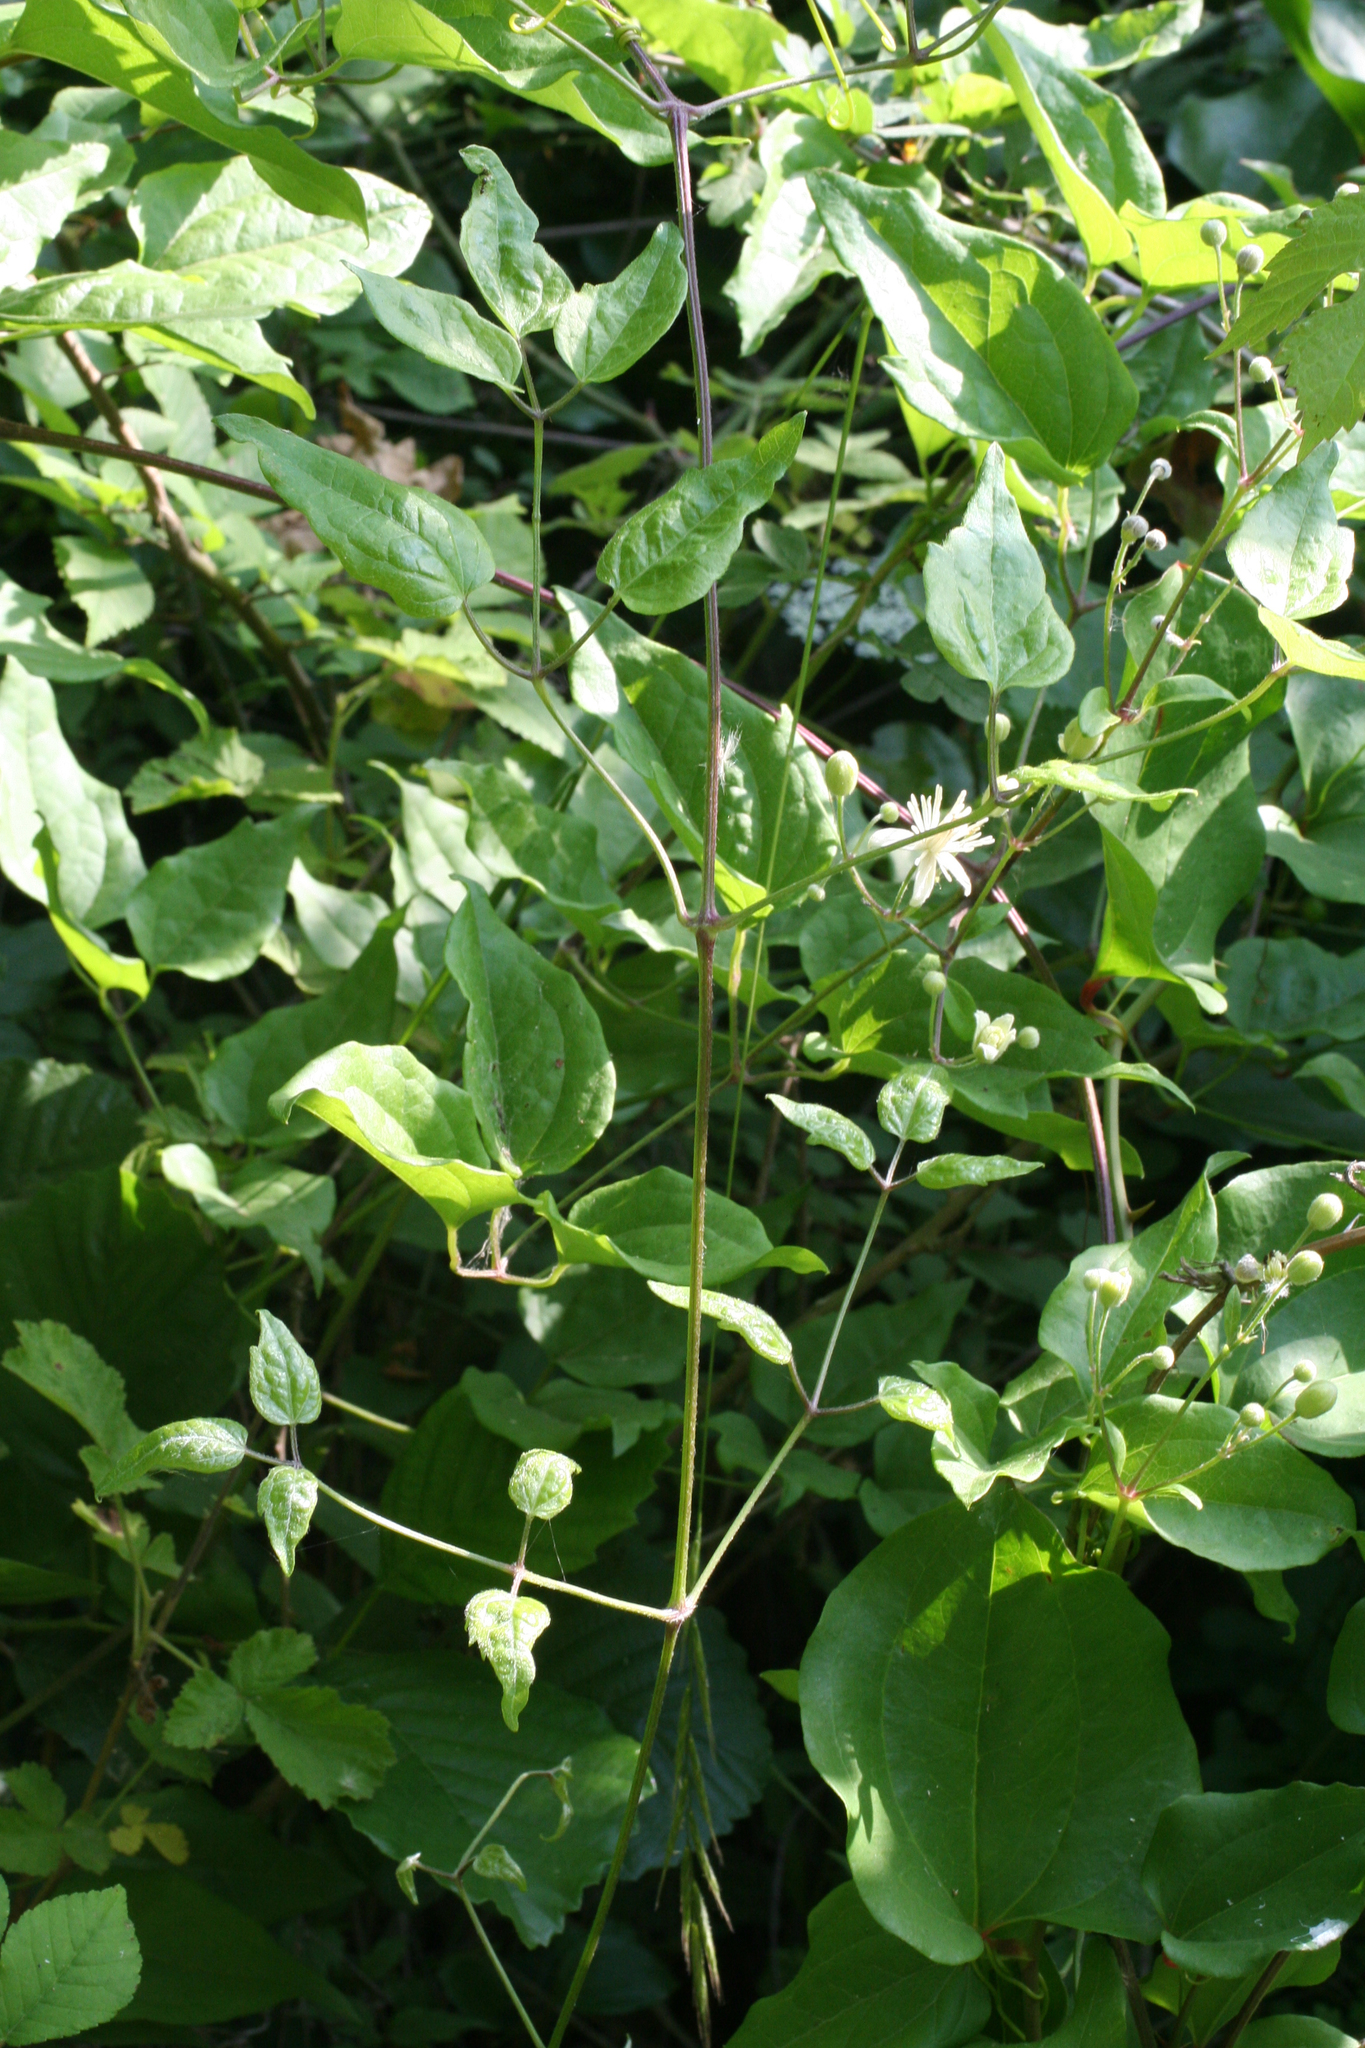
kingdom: Plantae
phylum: Tracheophyta
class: Magnoliopsida
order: Ranunculales
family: Ranunculaceae
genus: Clematis
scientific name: Clematis vitalba
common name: Evergreen clematis
